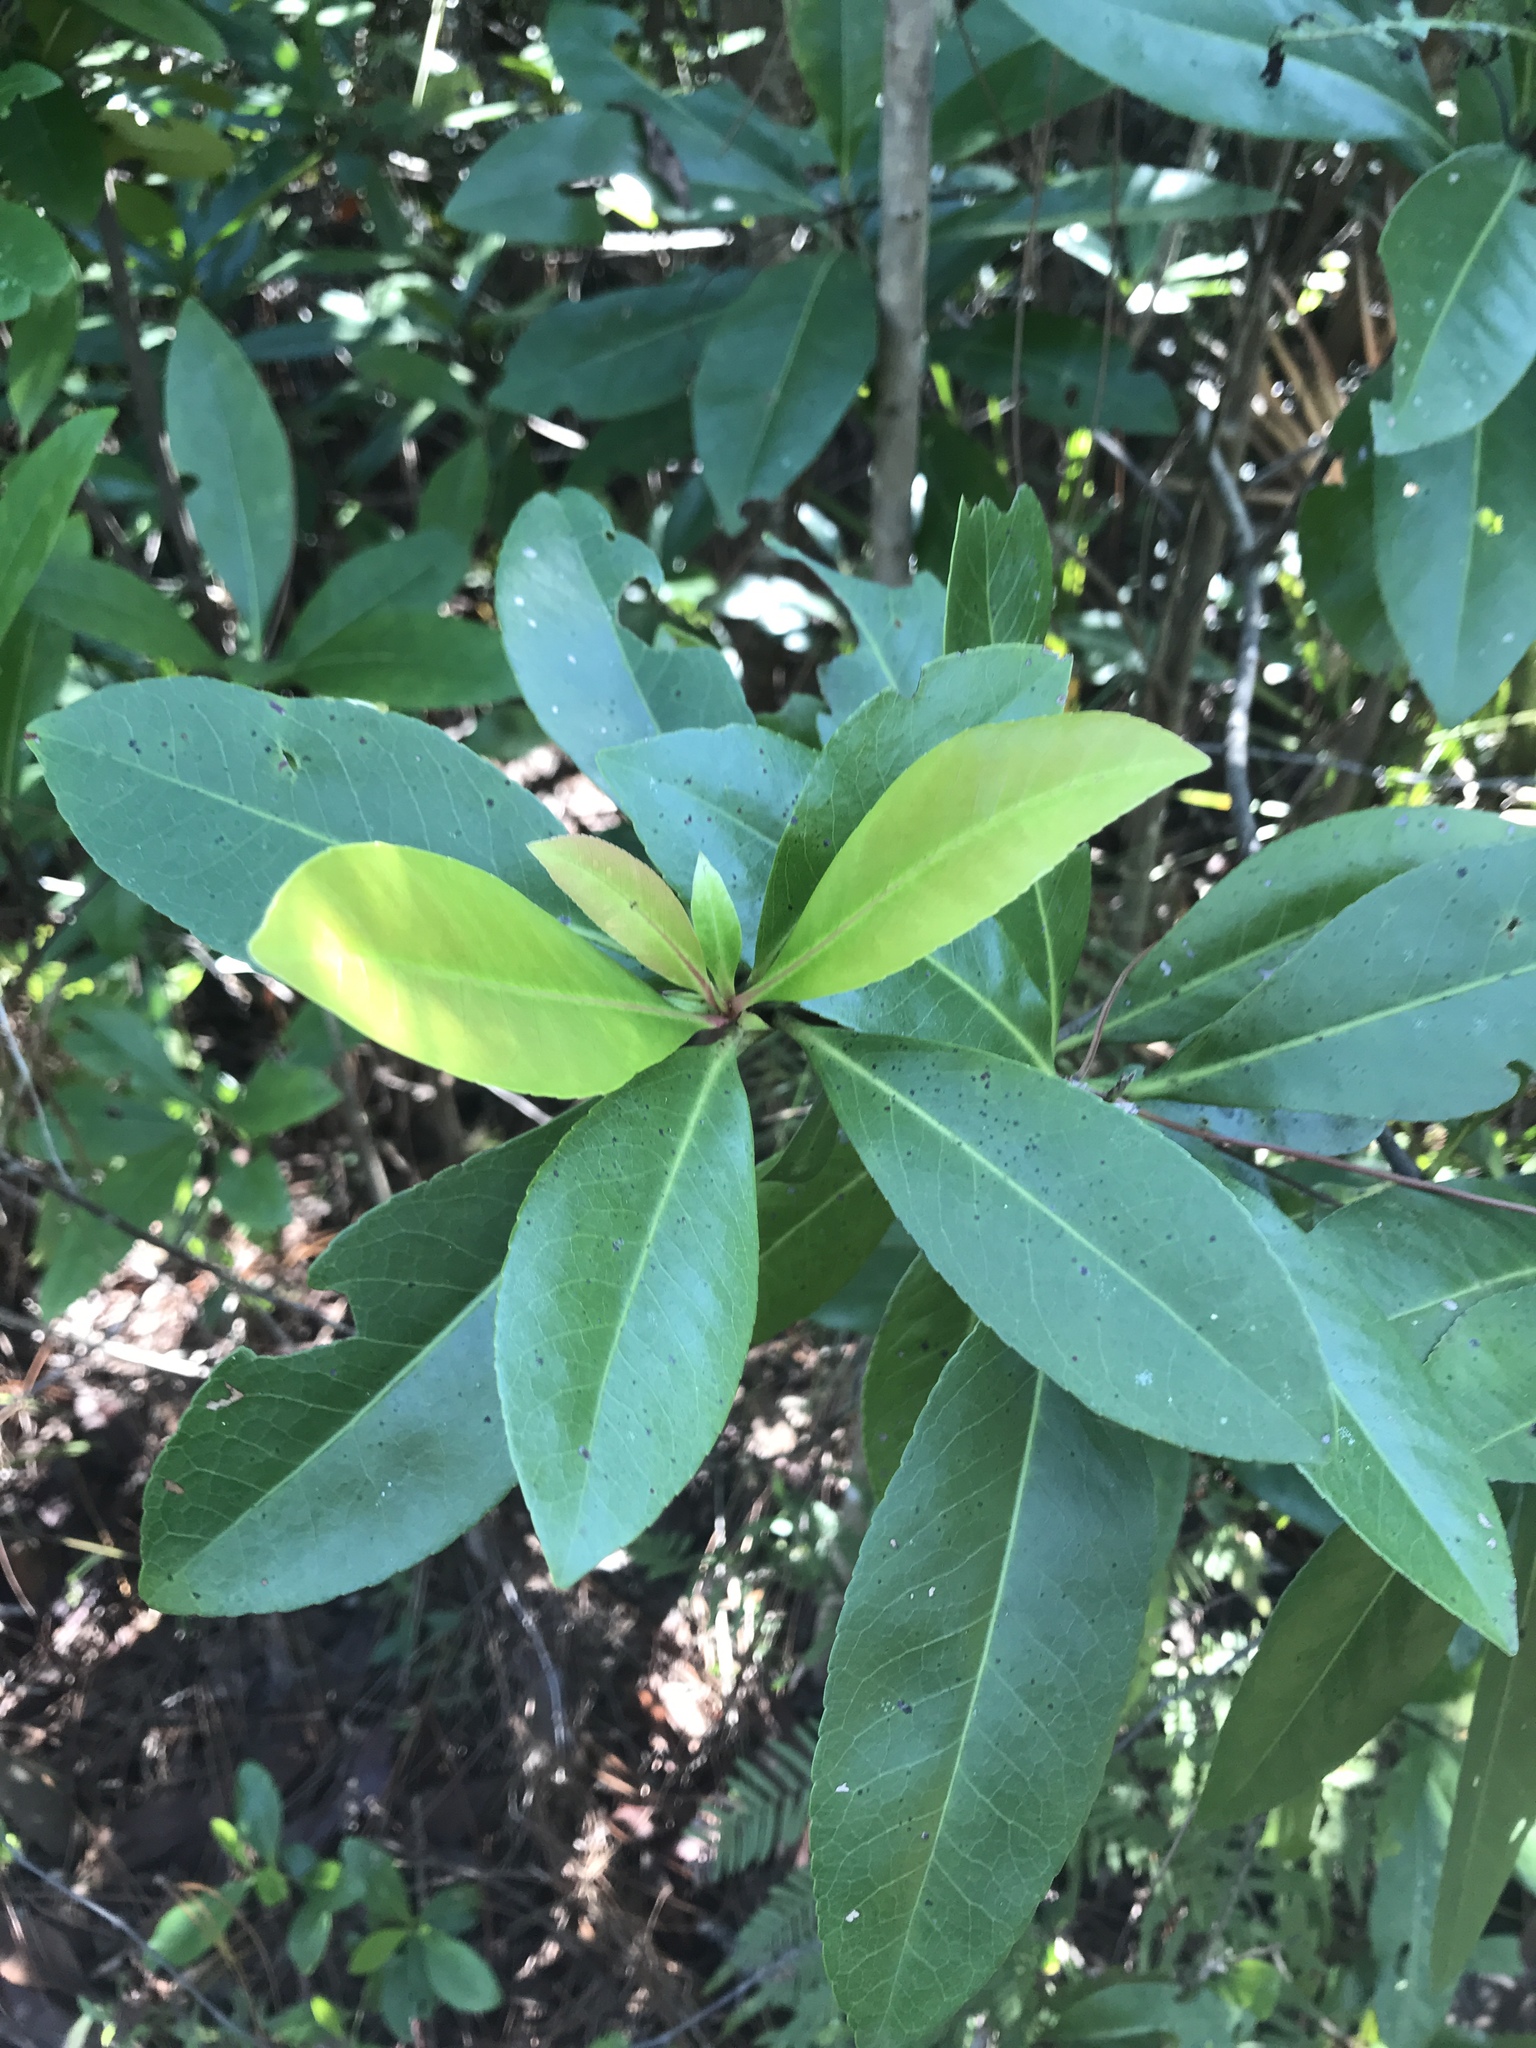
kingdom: Plantae
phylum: Tracheophyta
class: Magnoliopsida
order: Magnoliales
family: Magnoliaceae
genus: Magnolia
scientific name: Magnolia virginiana
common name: Swamp bay
